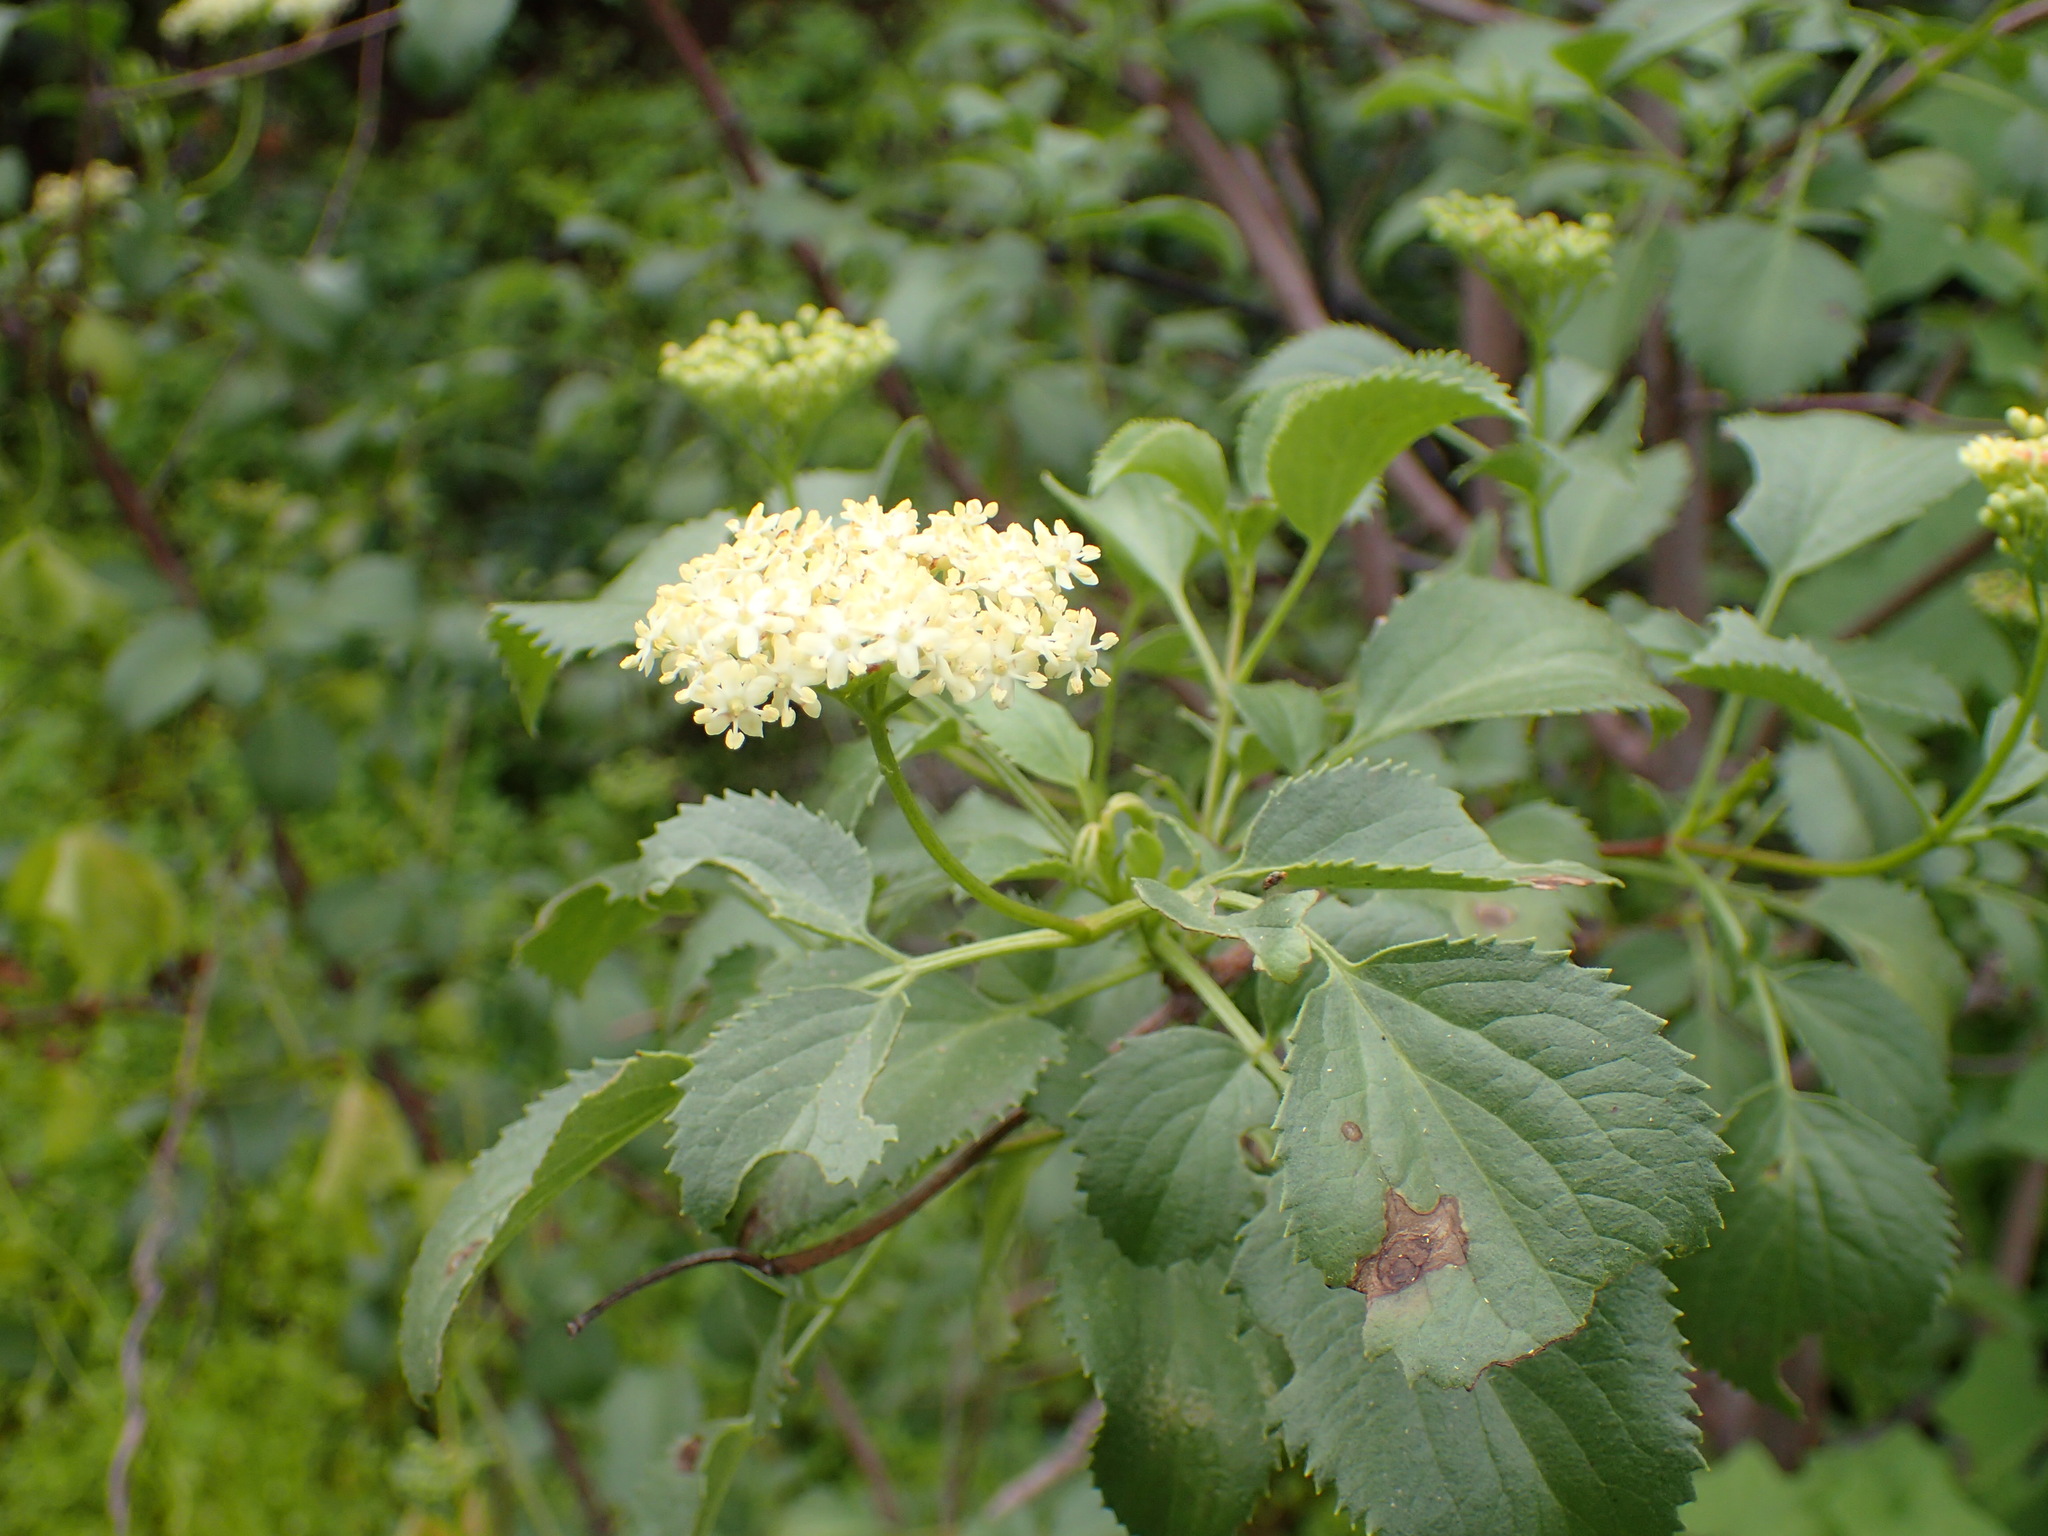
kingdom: Plantae
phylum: Tracheophyta
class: Magnoliopsida
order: Dipsacales
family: Viburnaceae
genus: Sambucus
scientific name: Sambucus cerulea
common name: Blue elder
